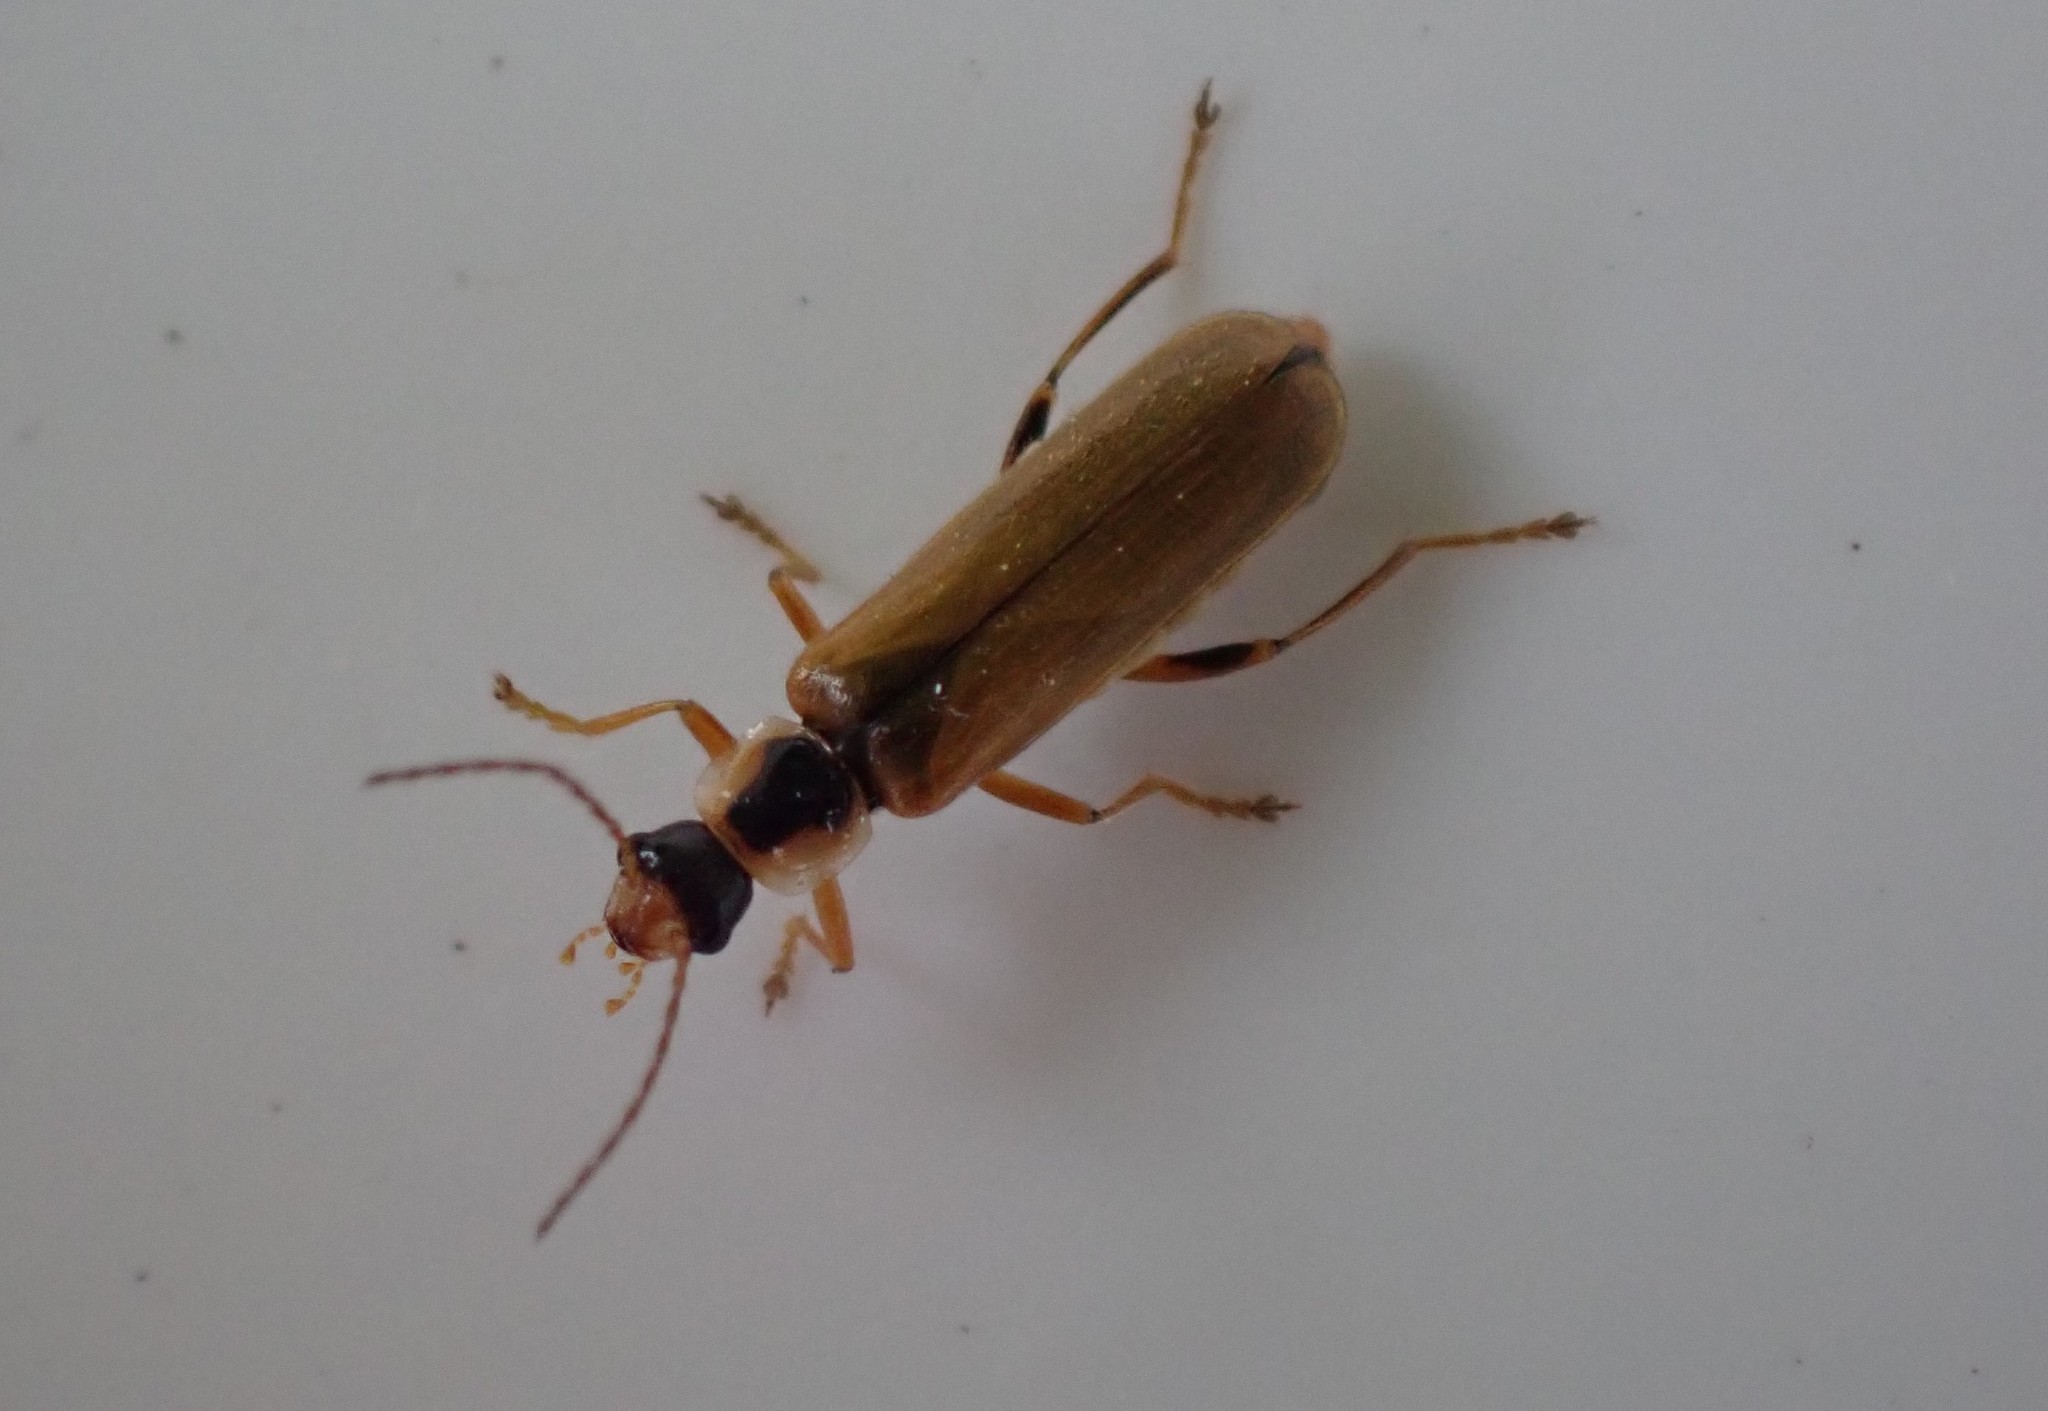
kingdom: Animalia
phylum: Arthropoda
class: Insecta
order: Coleoptera
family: Cantharidae
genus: Cantharis
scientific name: Cantharis decipiens
